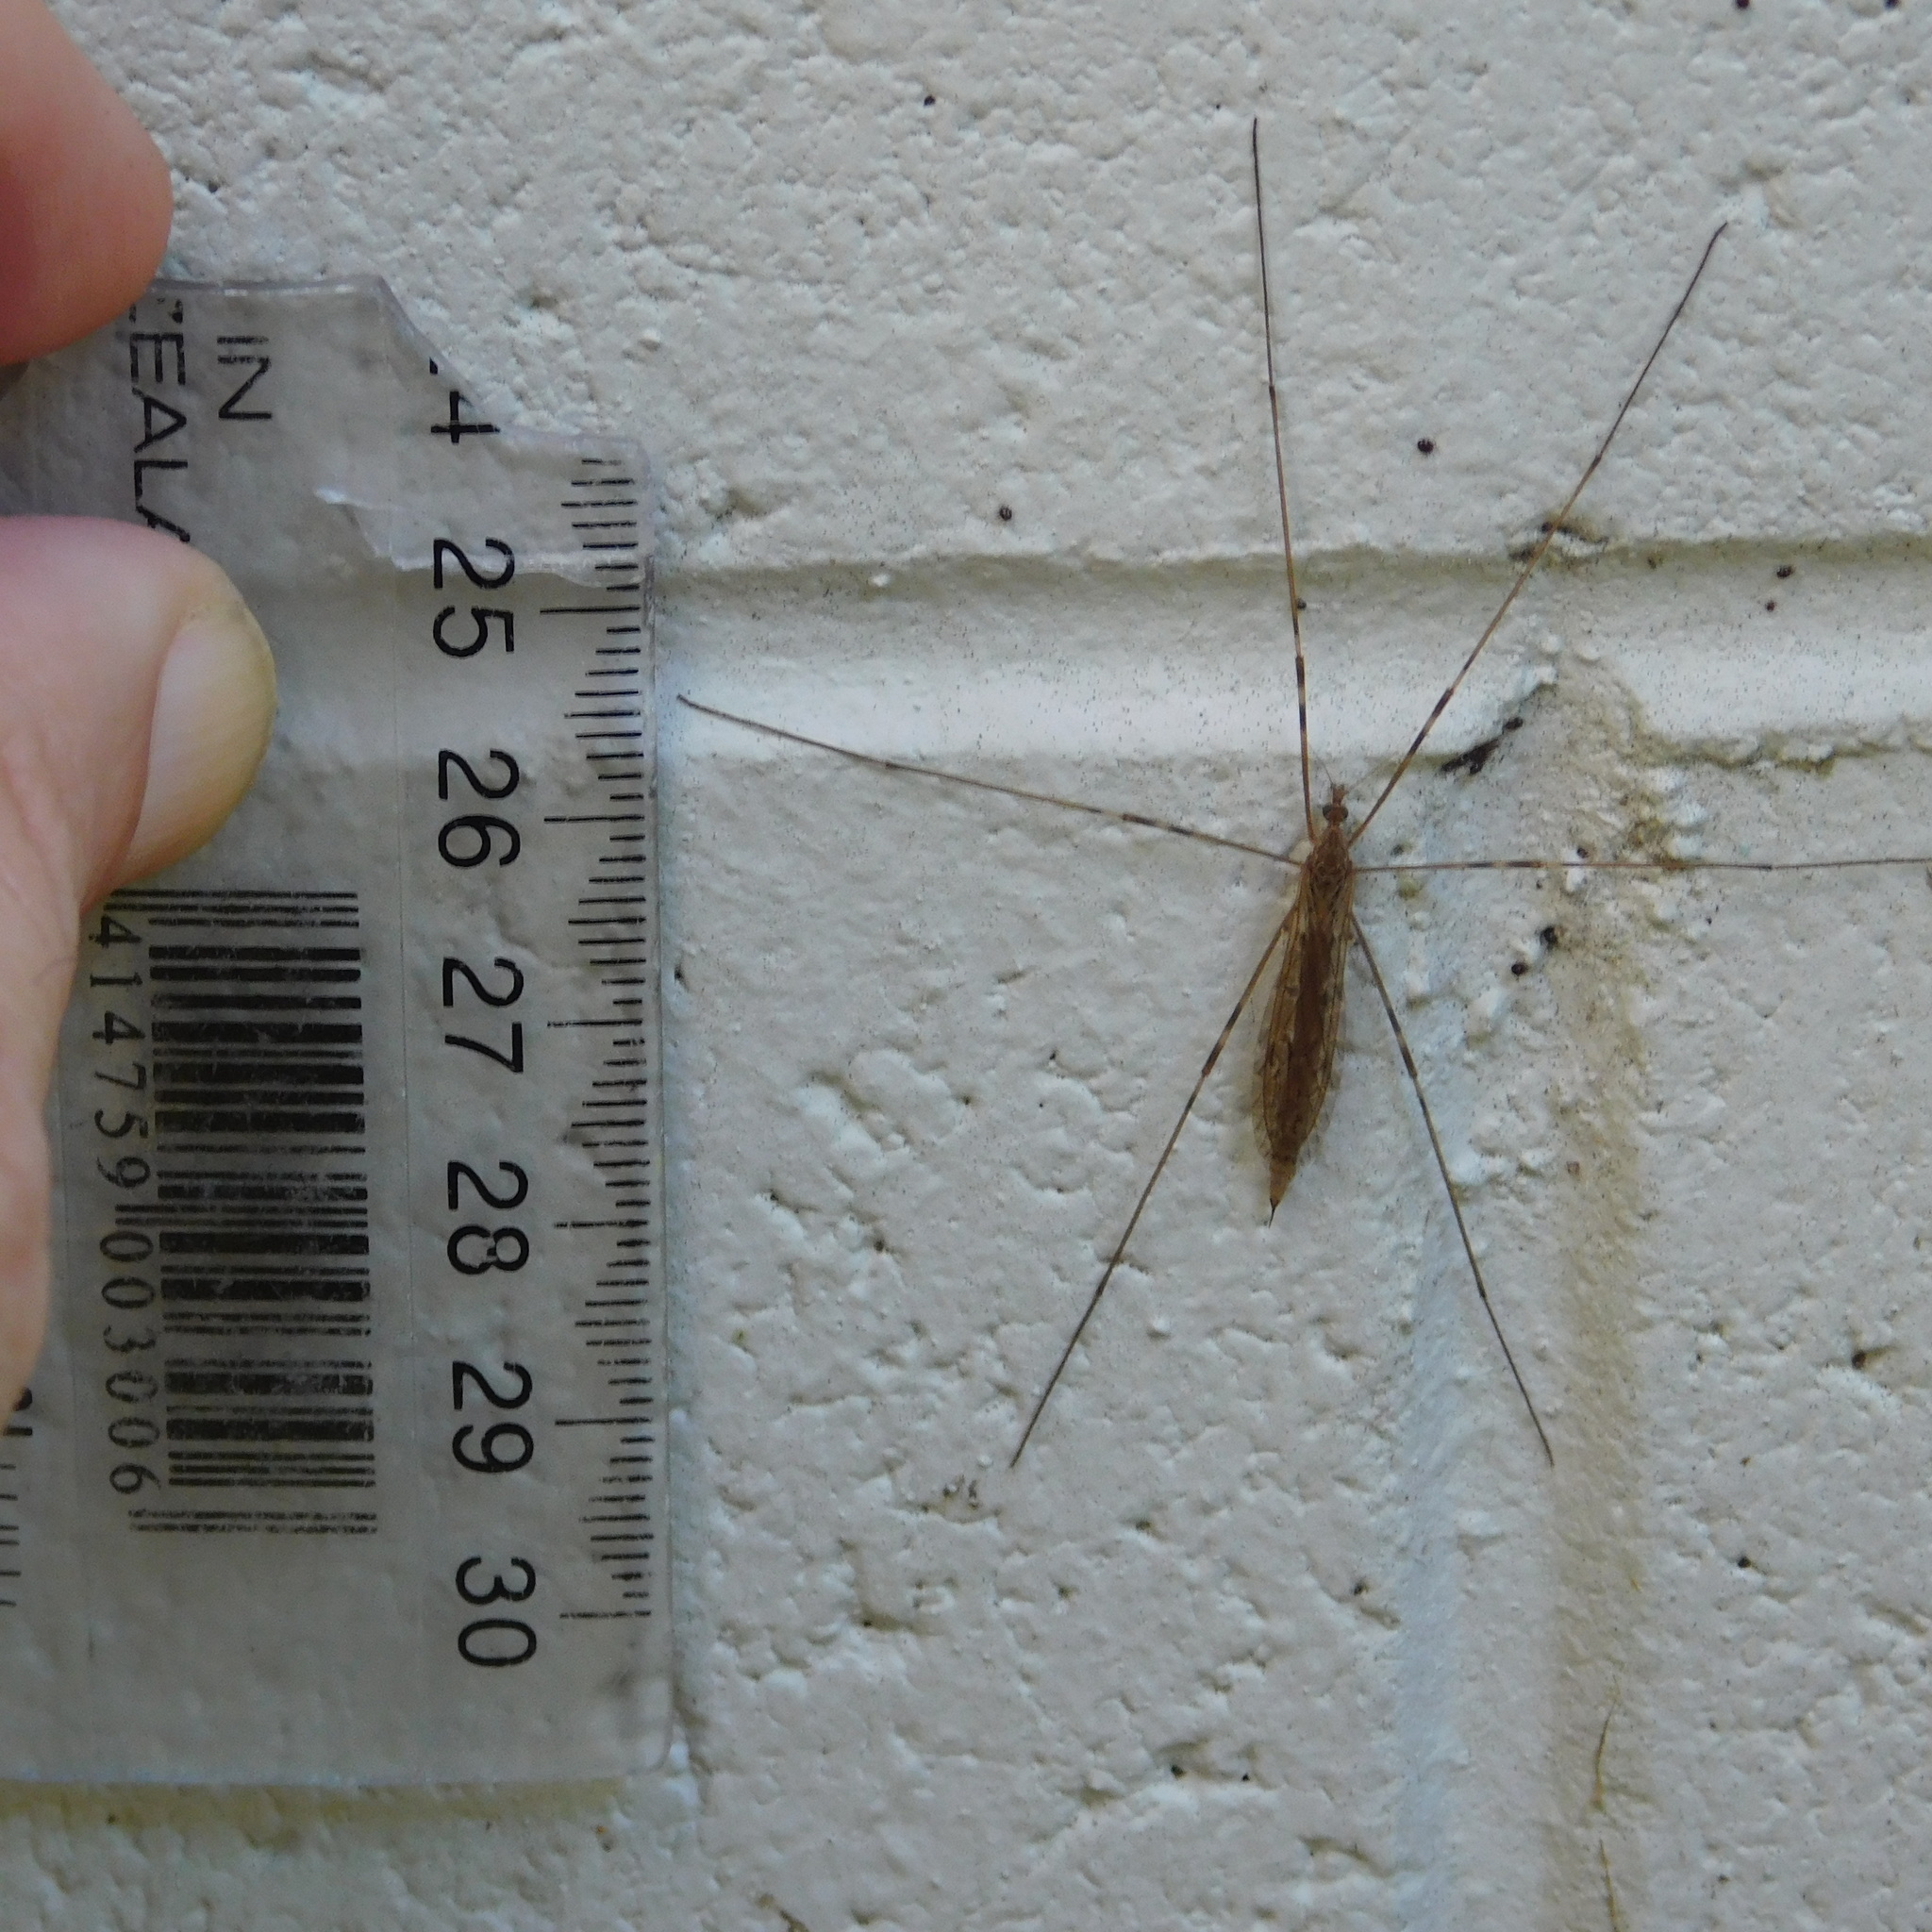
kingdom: Animalia
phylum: Arthropoda
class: Insecta
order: Diptera
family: Limoniidae
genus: Austrolimnophila
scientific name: Austrolimnophila crassipes
